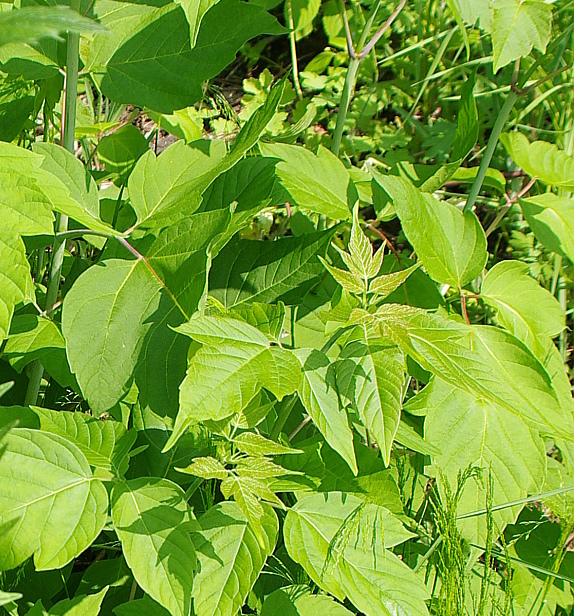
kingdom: Plantae
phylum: Tracheophyta
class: Magnoliopsida
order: Sapindales
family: Sapindaceae
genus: Acer
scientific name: Acer negundo
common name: Ashleaf maple
